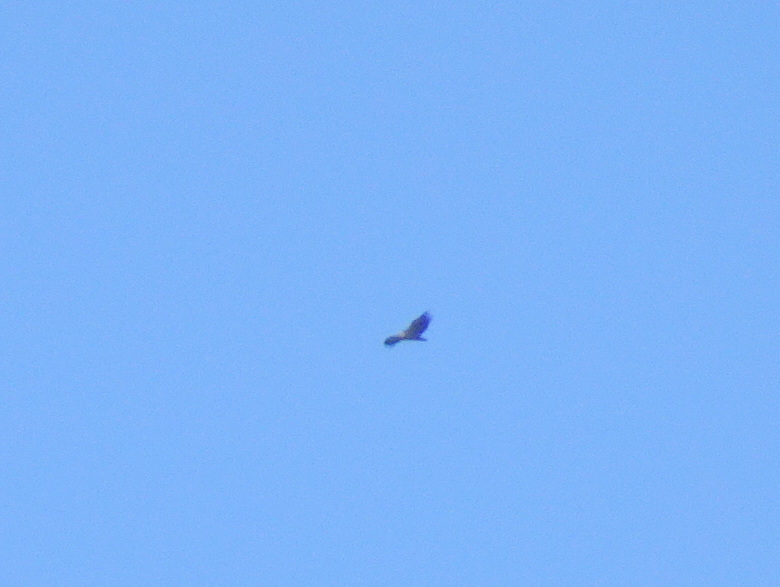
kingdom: Animalia
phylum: Chordata
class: Aves
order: Accipitriformes
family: Accipitridae
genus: Gyps
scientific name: Gyps fulvus
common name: Griffon vulture
